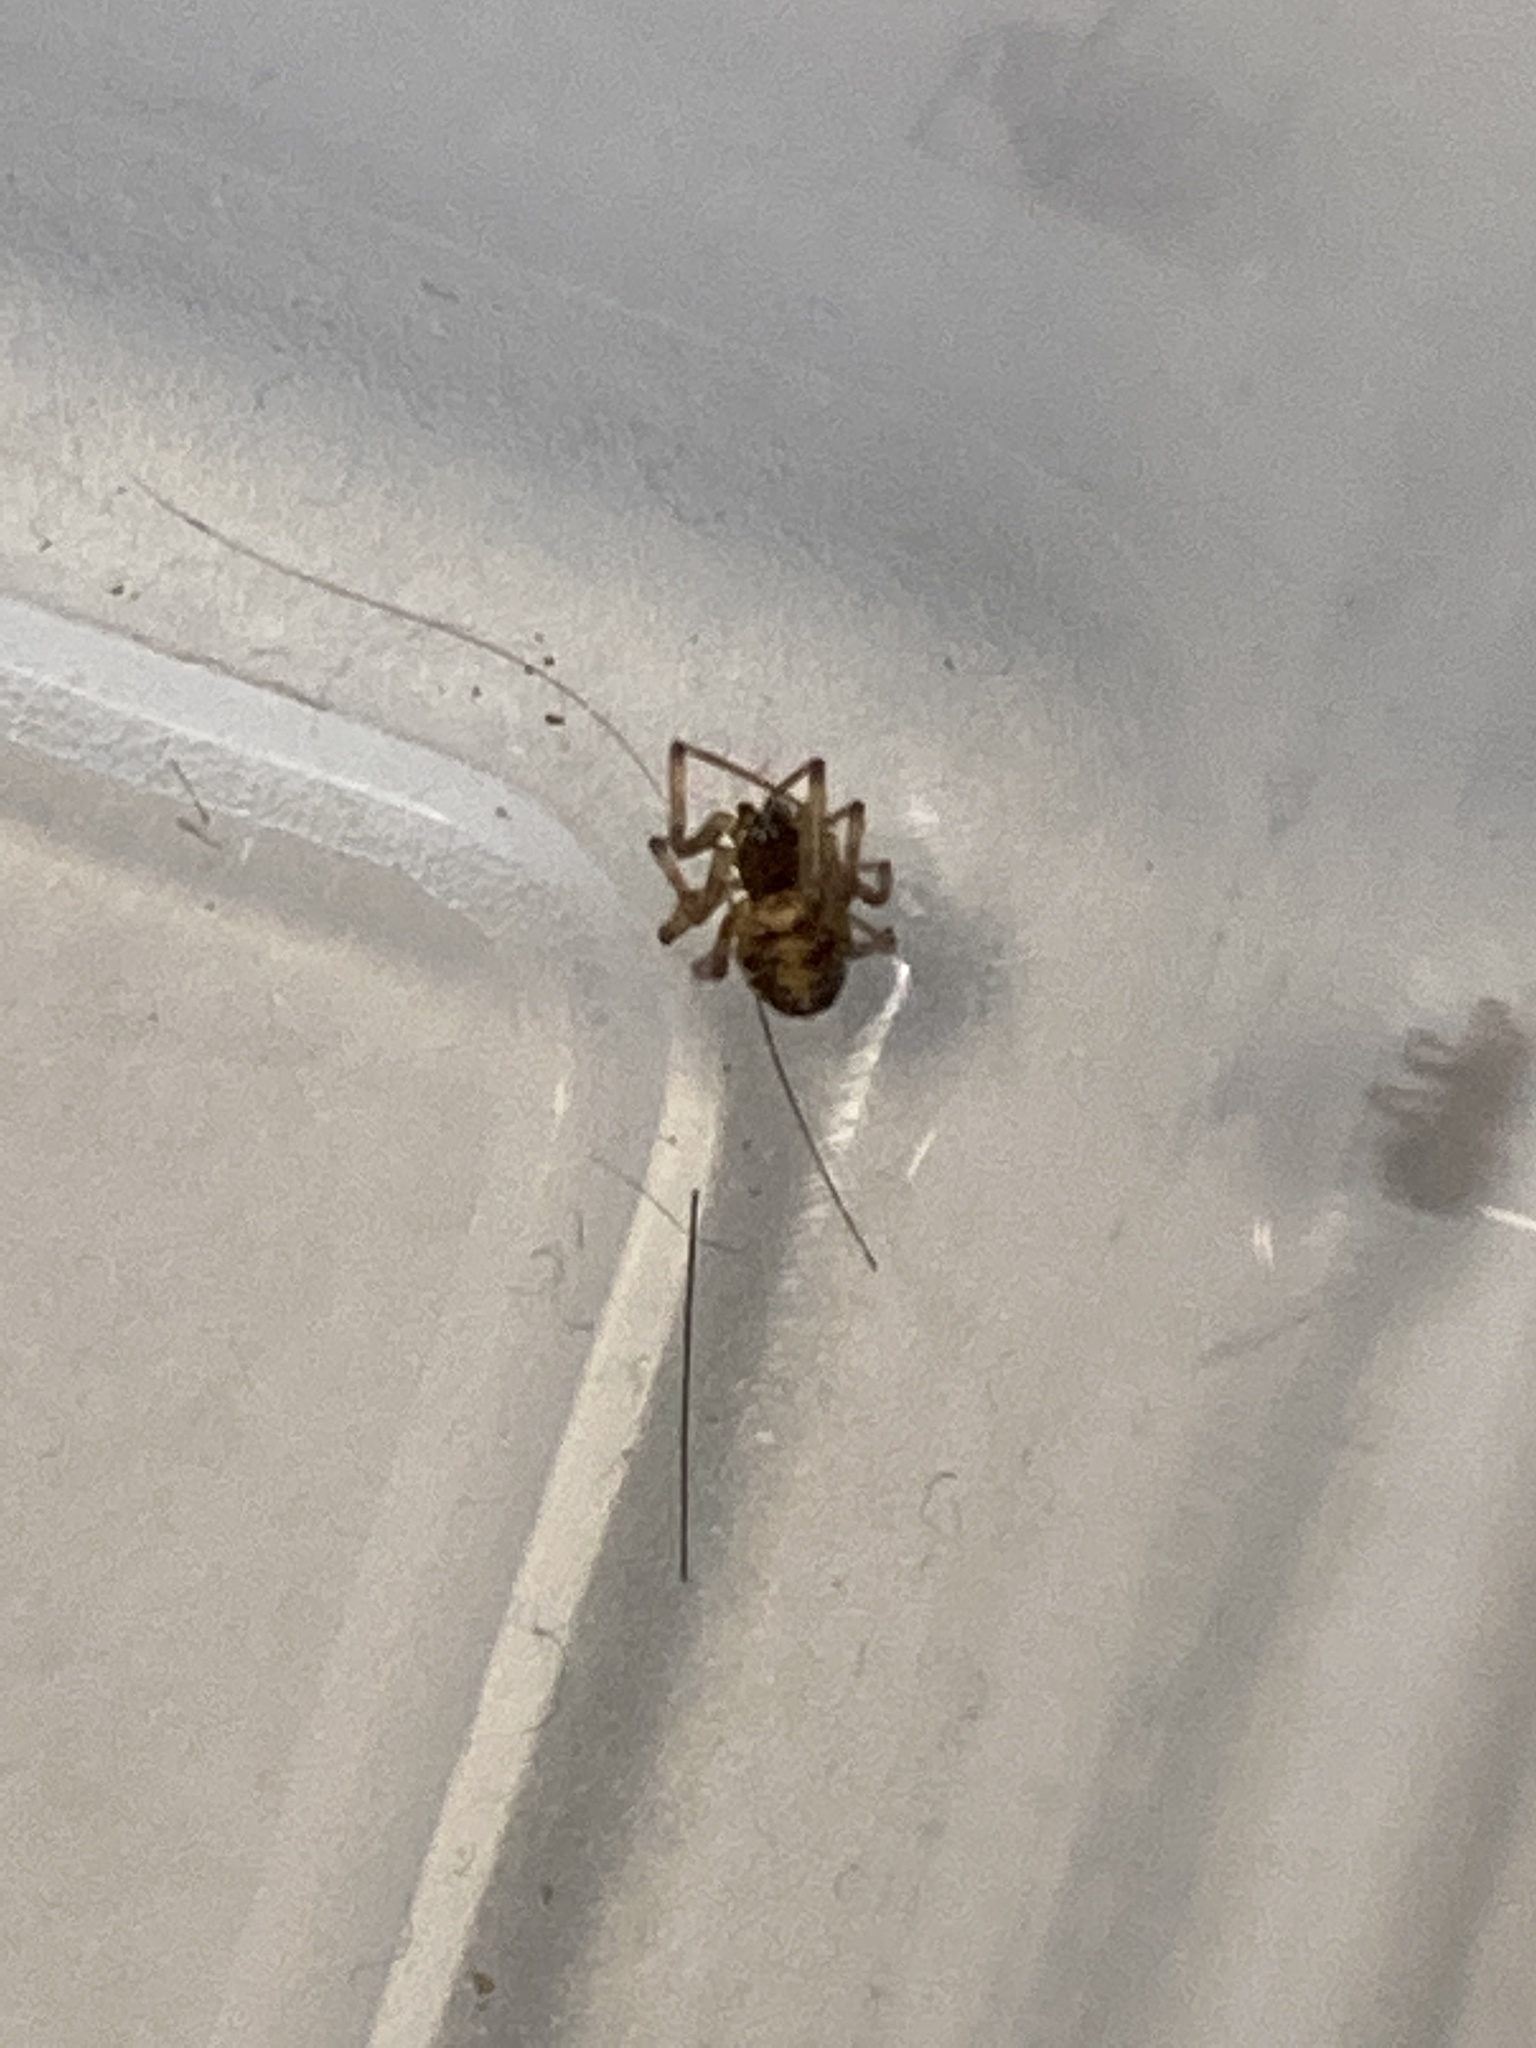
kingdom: Animalia
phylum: Arthropoda
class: Arachnida
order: Araneae
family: Theridiidae
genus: Steatoda
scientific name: Steatoda triangulosa
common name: Triangulate bud spider
